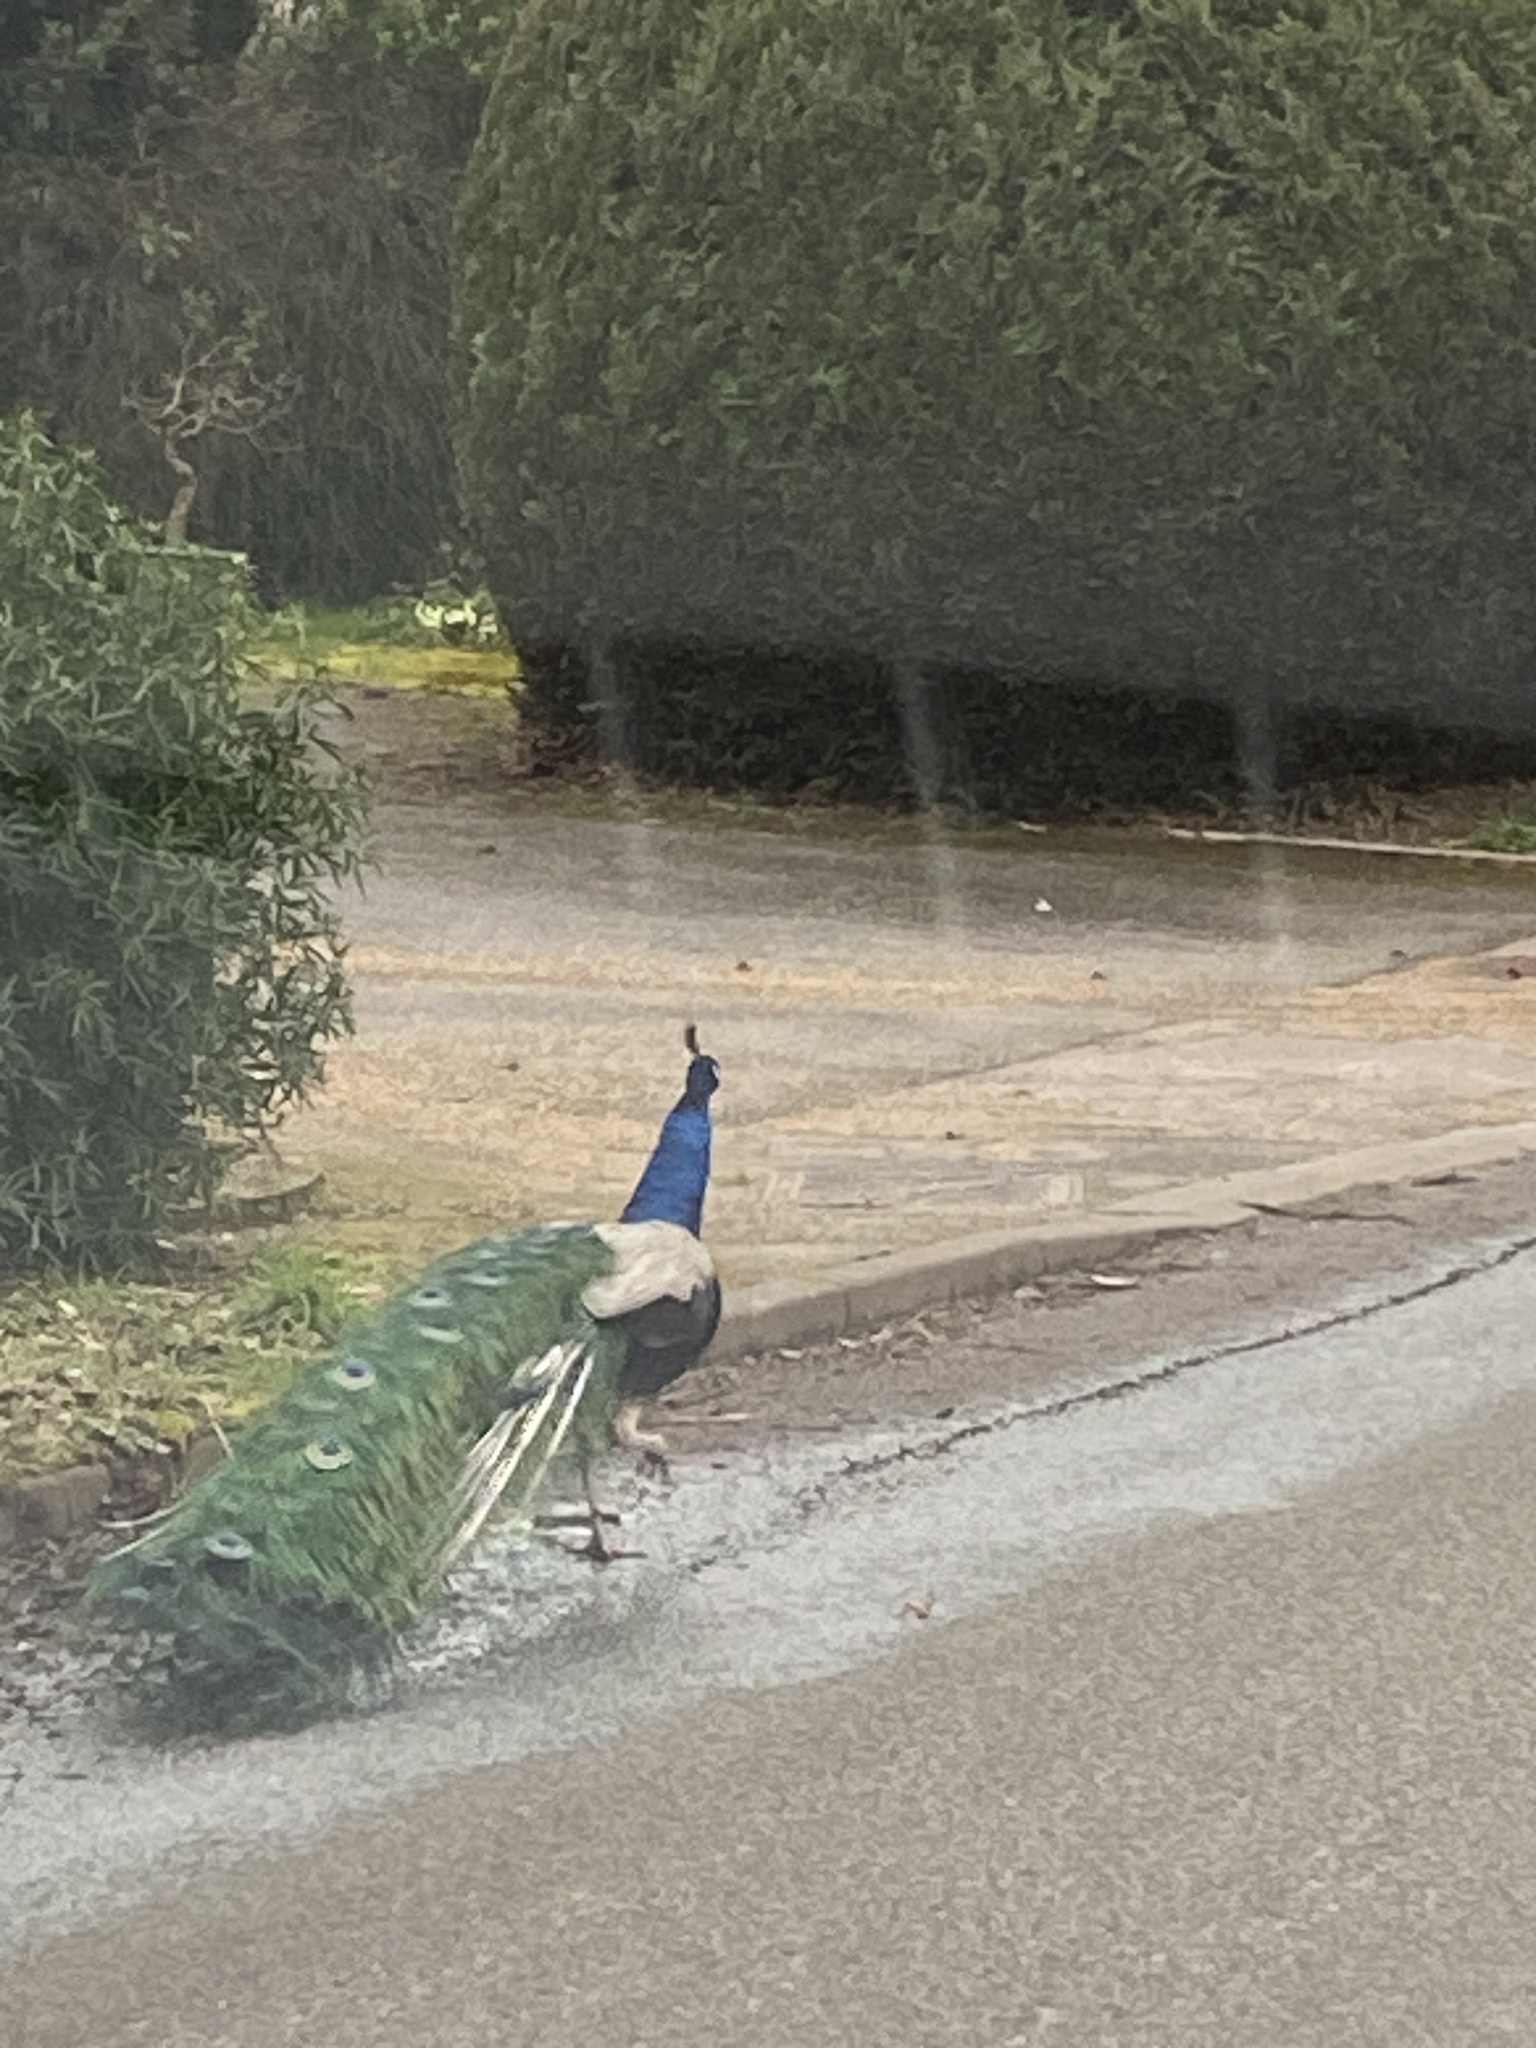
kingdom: Animalia
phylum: Chordata
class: Aves
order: Galliformes
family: Phasianidae
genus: Pavo
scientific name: Pavo cristatus
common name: Indian peafowl
